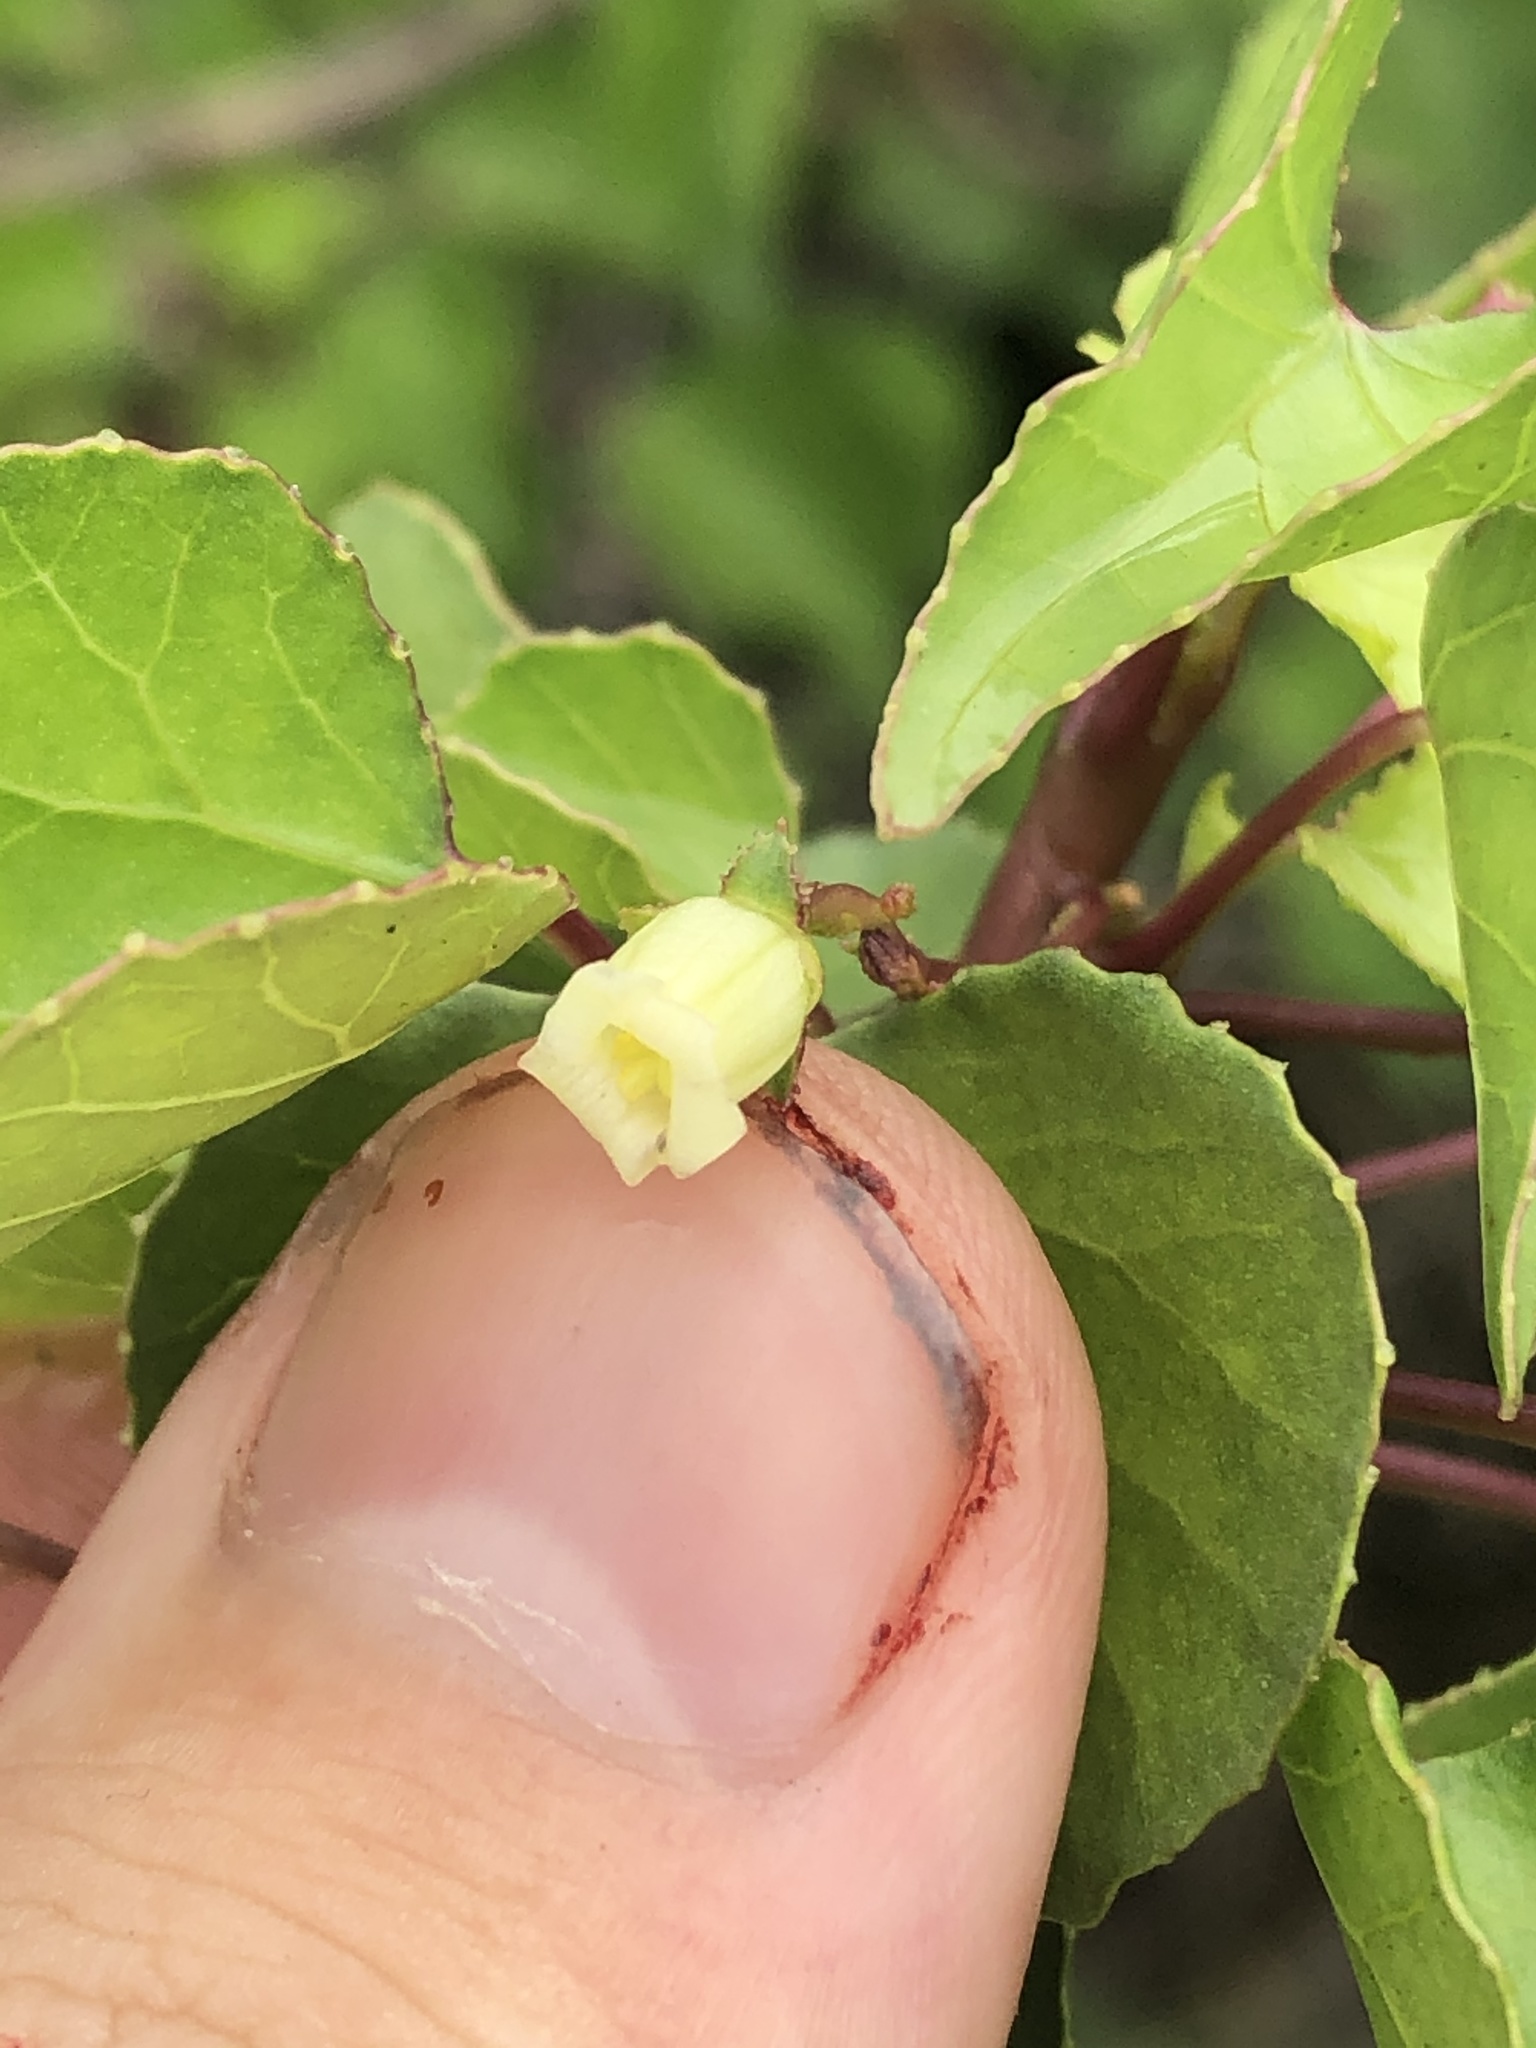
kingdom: Plantae
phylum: Tracheophyta
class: Magnoliopsida
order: Malpighiales
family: Euphorbiaceae
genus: Jatropha
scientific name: Jatropha cardiophylla
